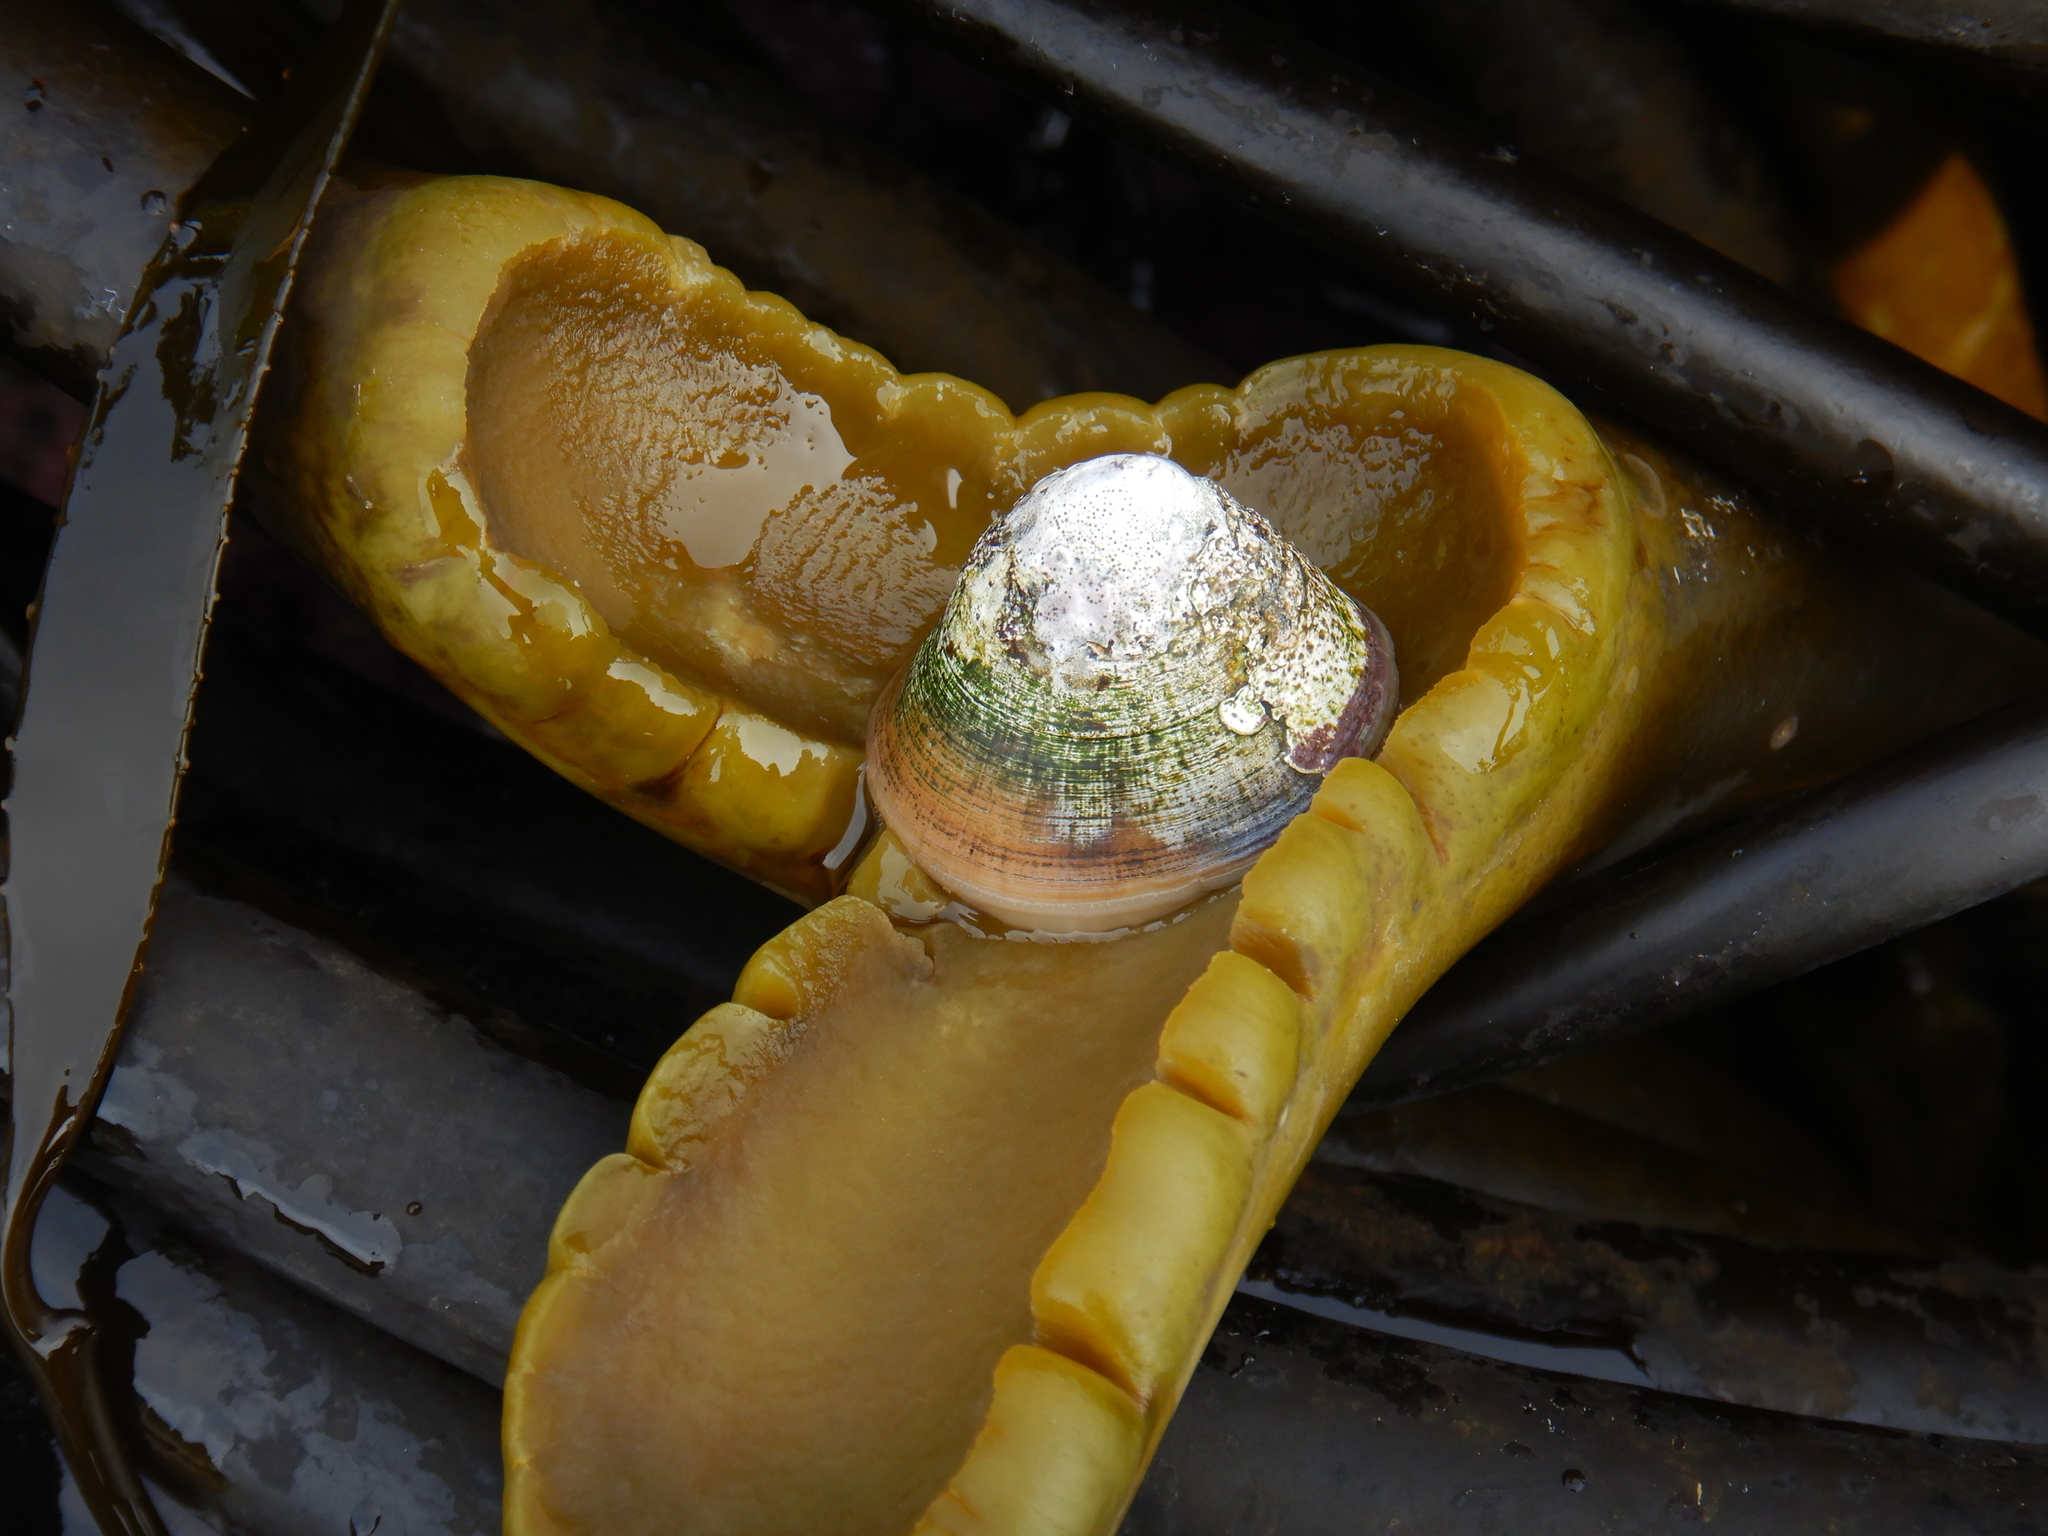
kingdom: Animalia
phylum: Mollusca
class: Gastropoda
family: Lottiidae
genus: Scurria
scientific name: Scurria scurra
